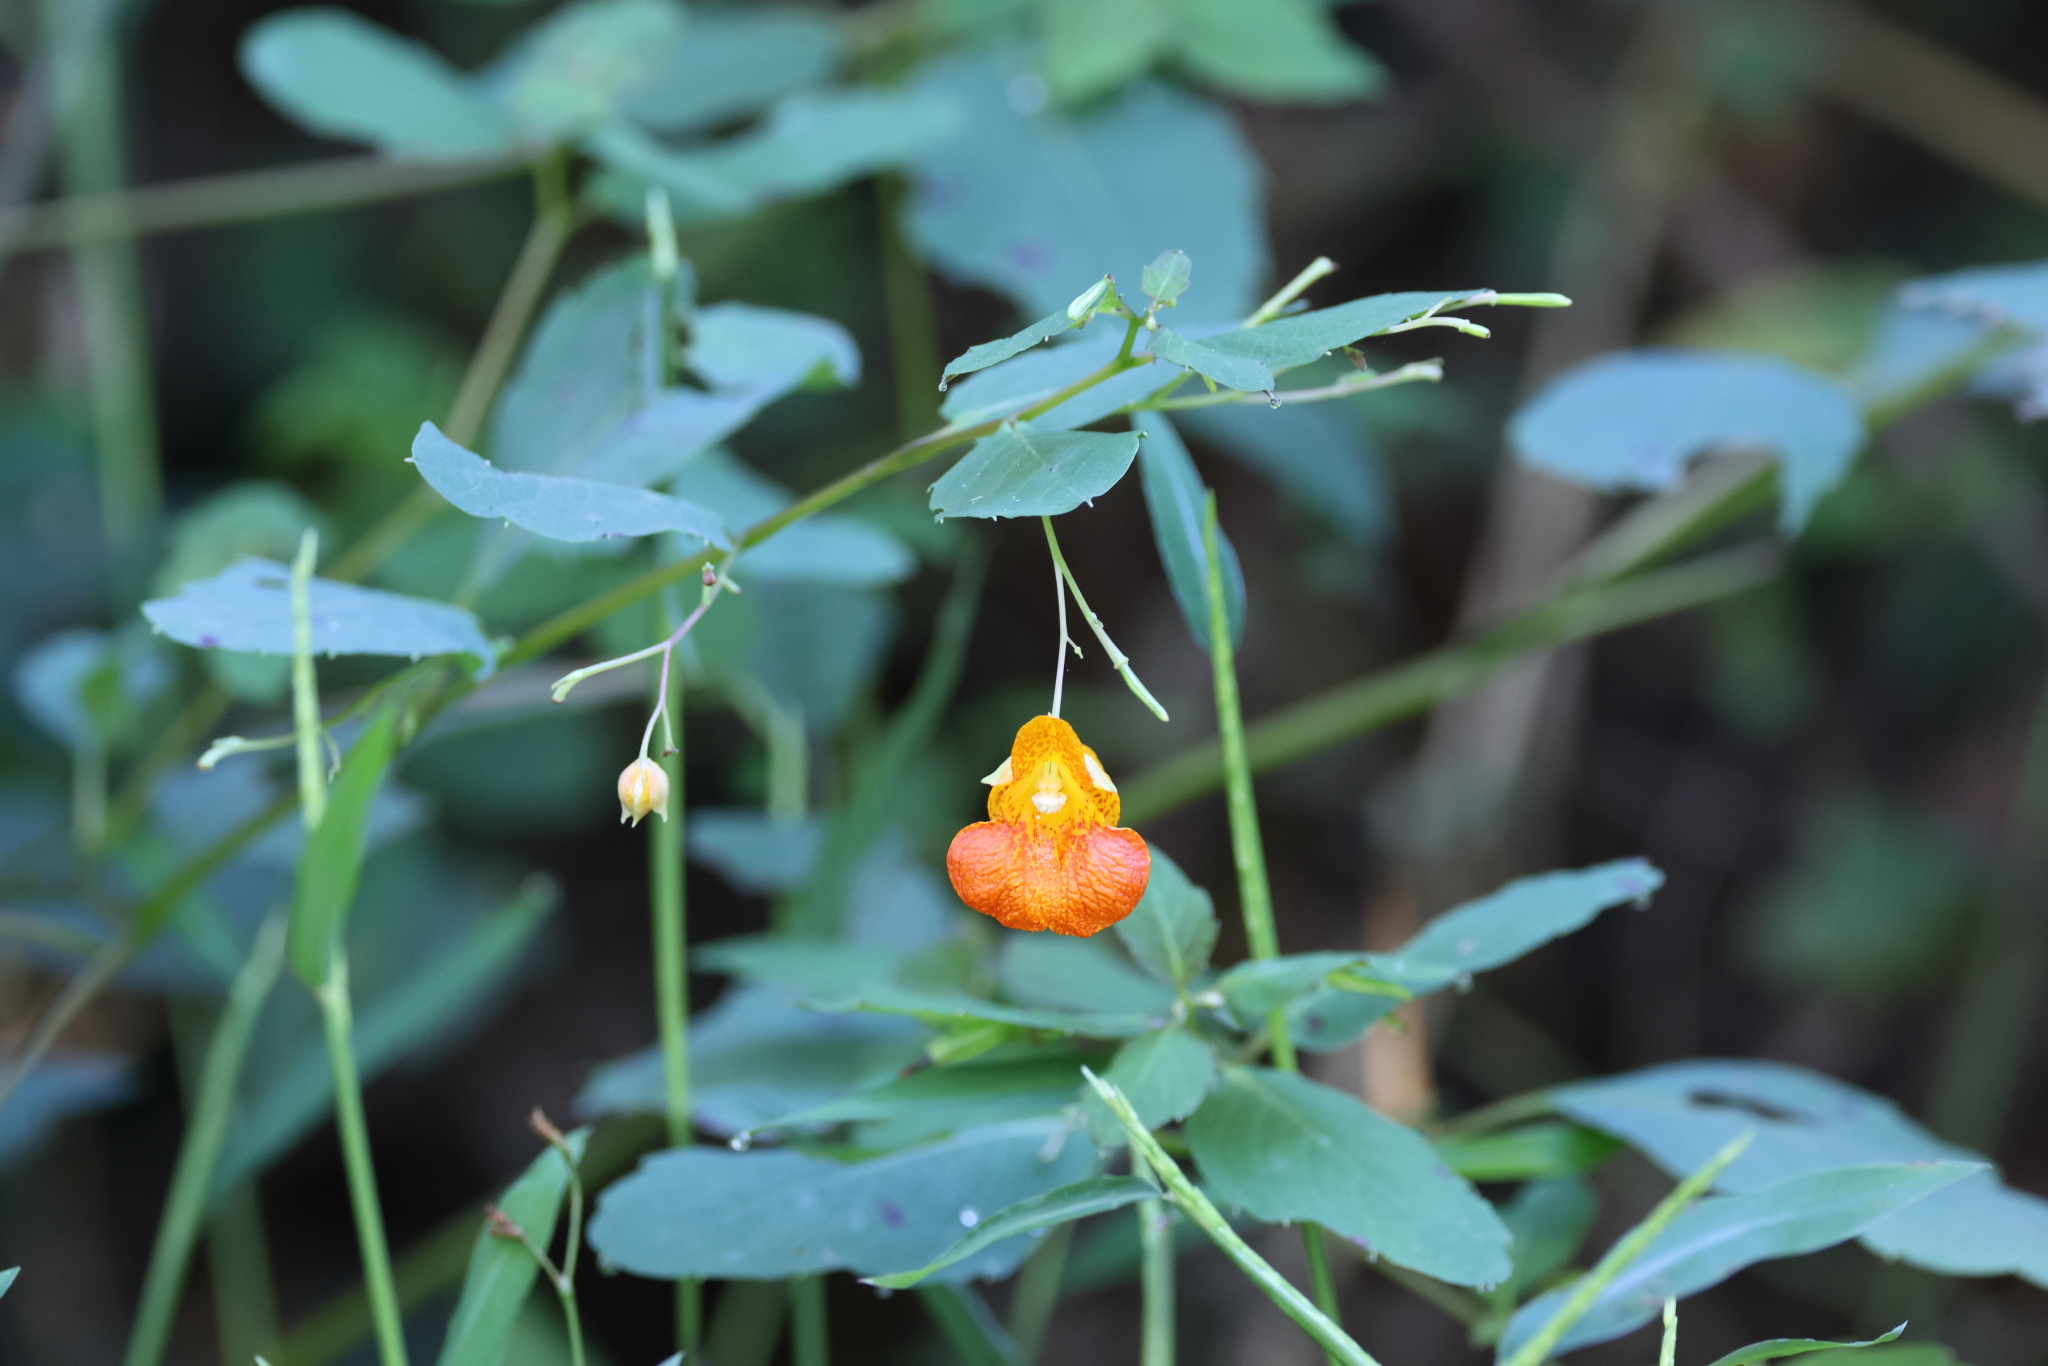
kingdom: Plantae
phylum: Tracheophyta
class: Magnoliopsida
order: Ericales
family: Balsaminaceae
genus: Impatiens
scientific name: Impatiens capensis
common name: Orange balsam
